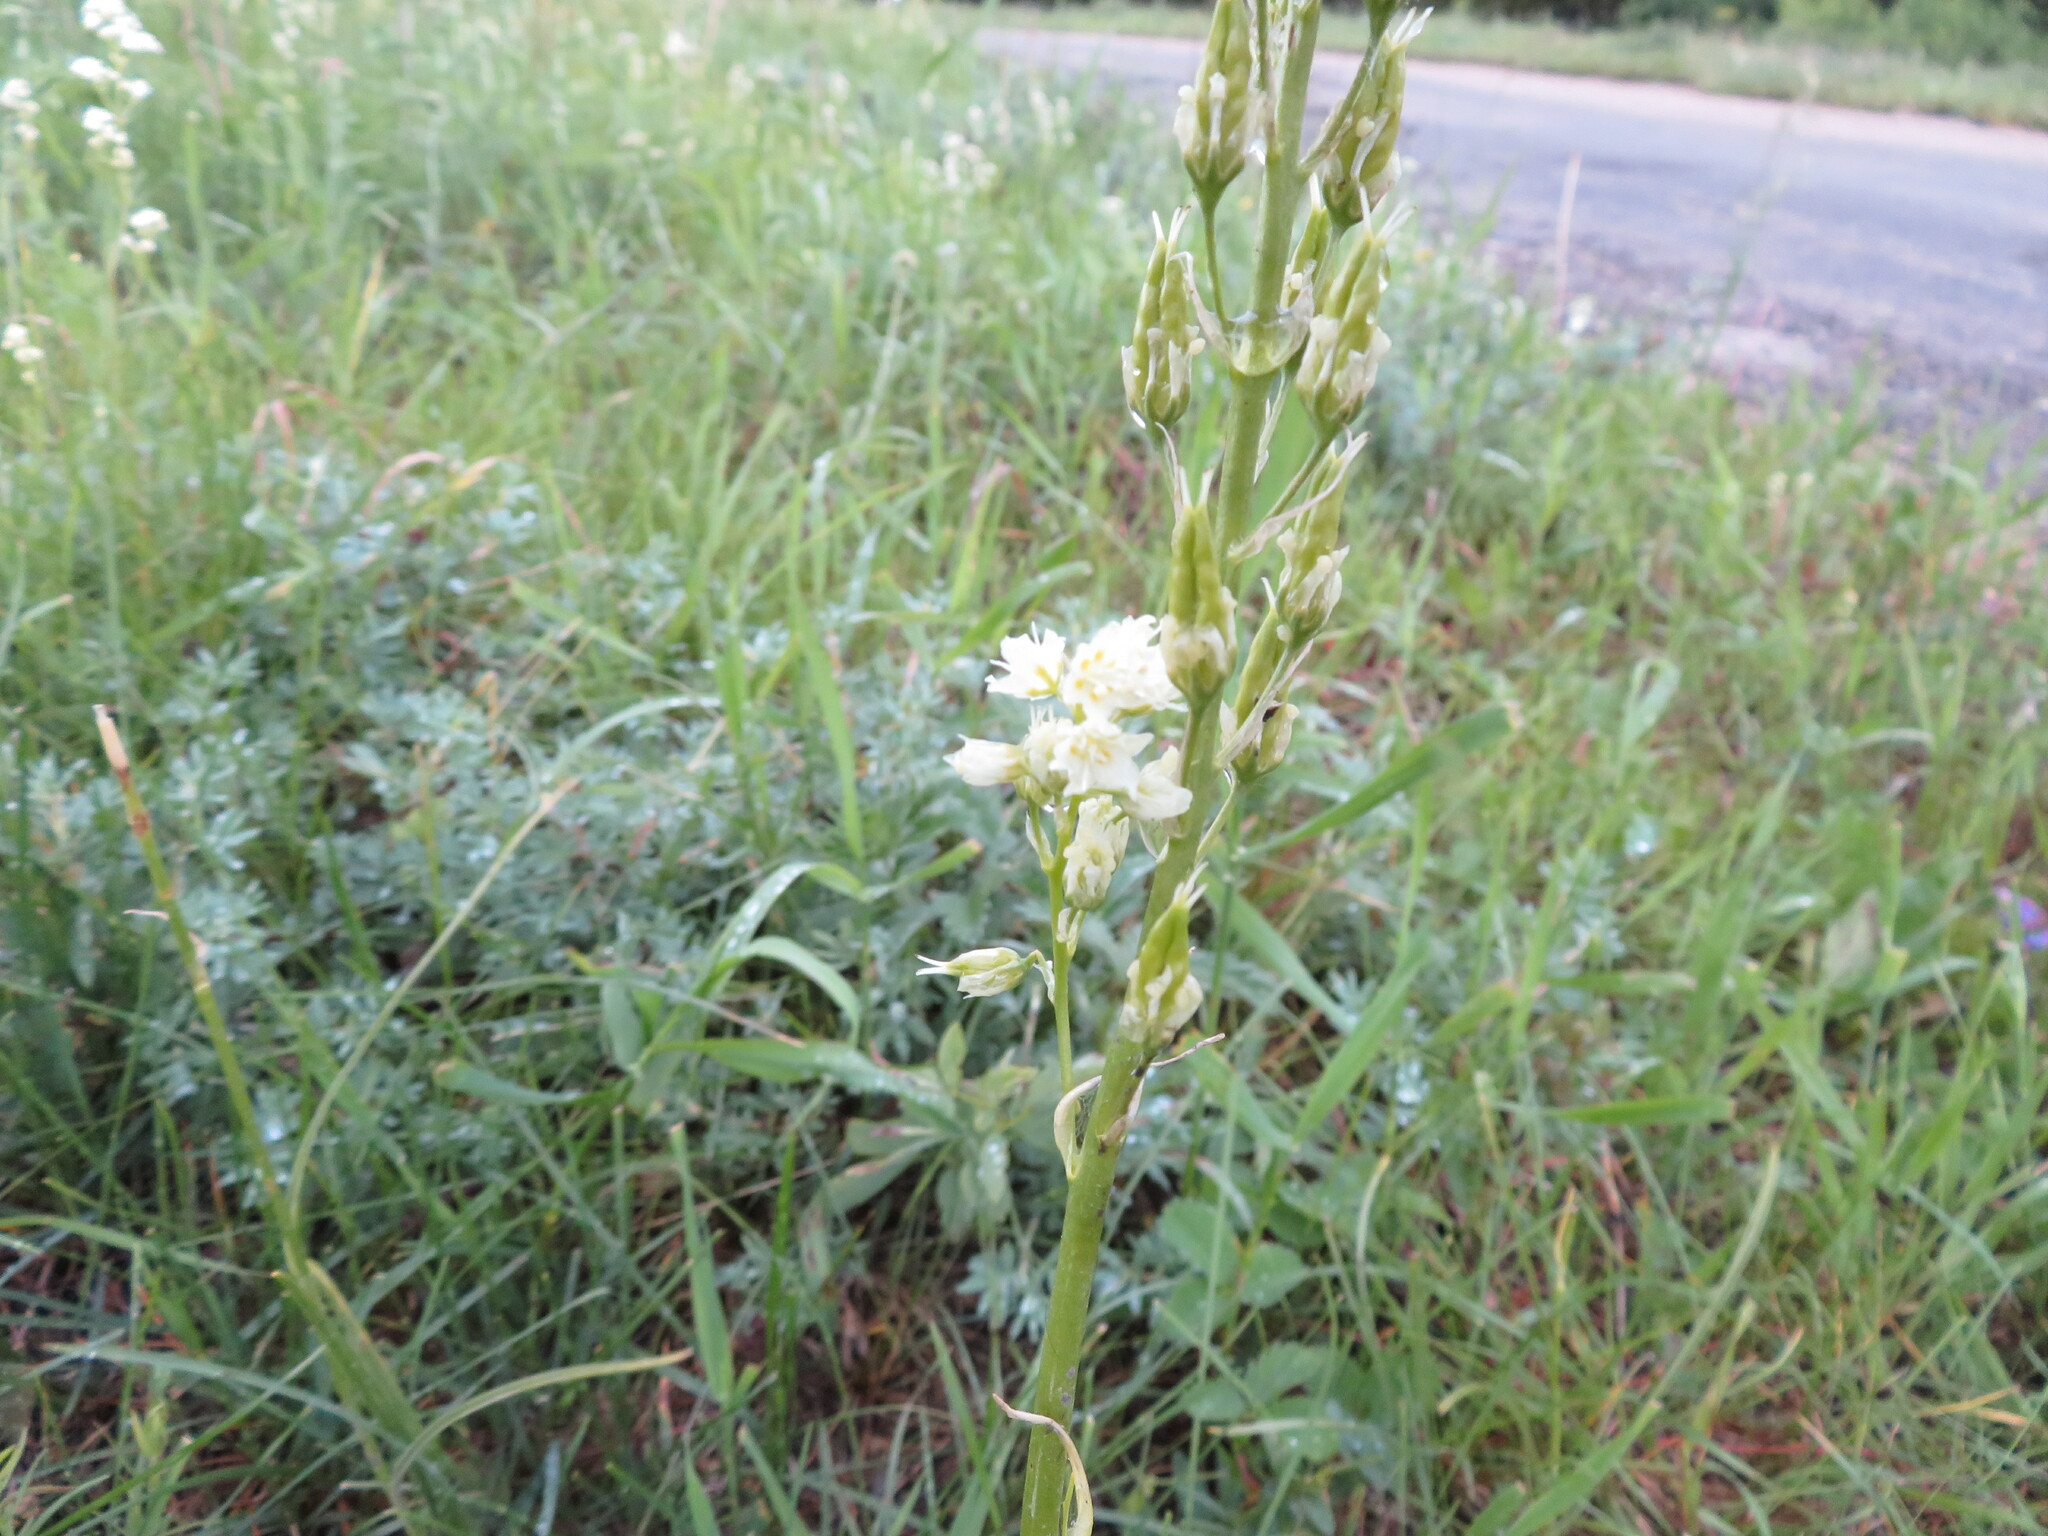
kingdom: Plantae
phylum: Tracheophyta
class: Liliopsida
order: Liliales
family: Melanthiaceae
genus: Toxicoscordion
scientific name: Toxicoscordion venenosum
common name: Meadow death camas
